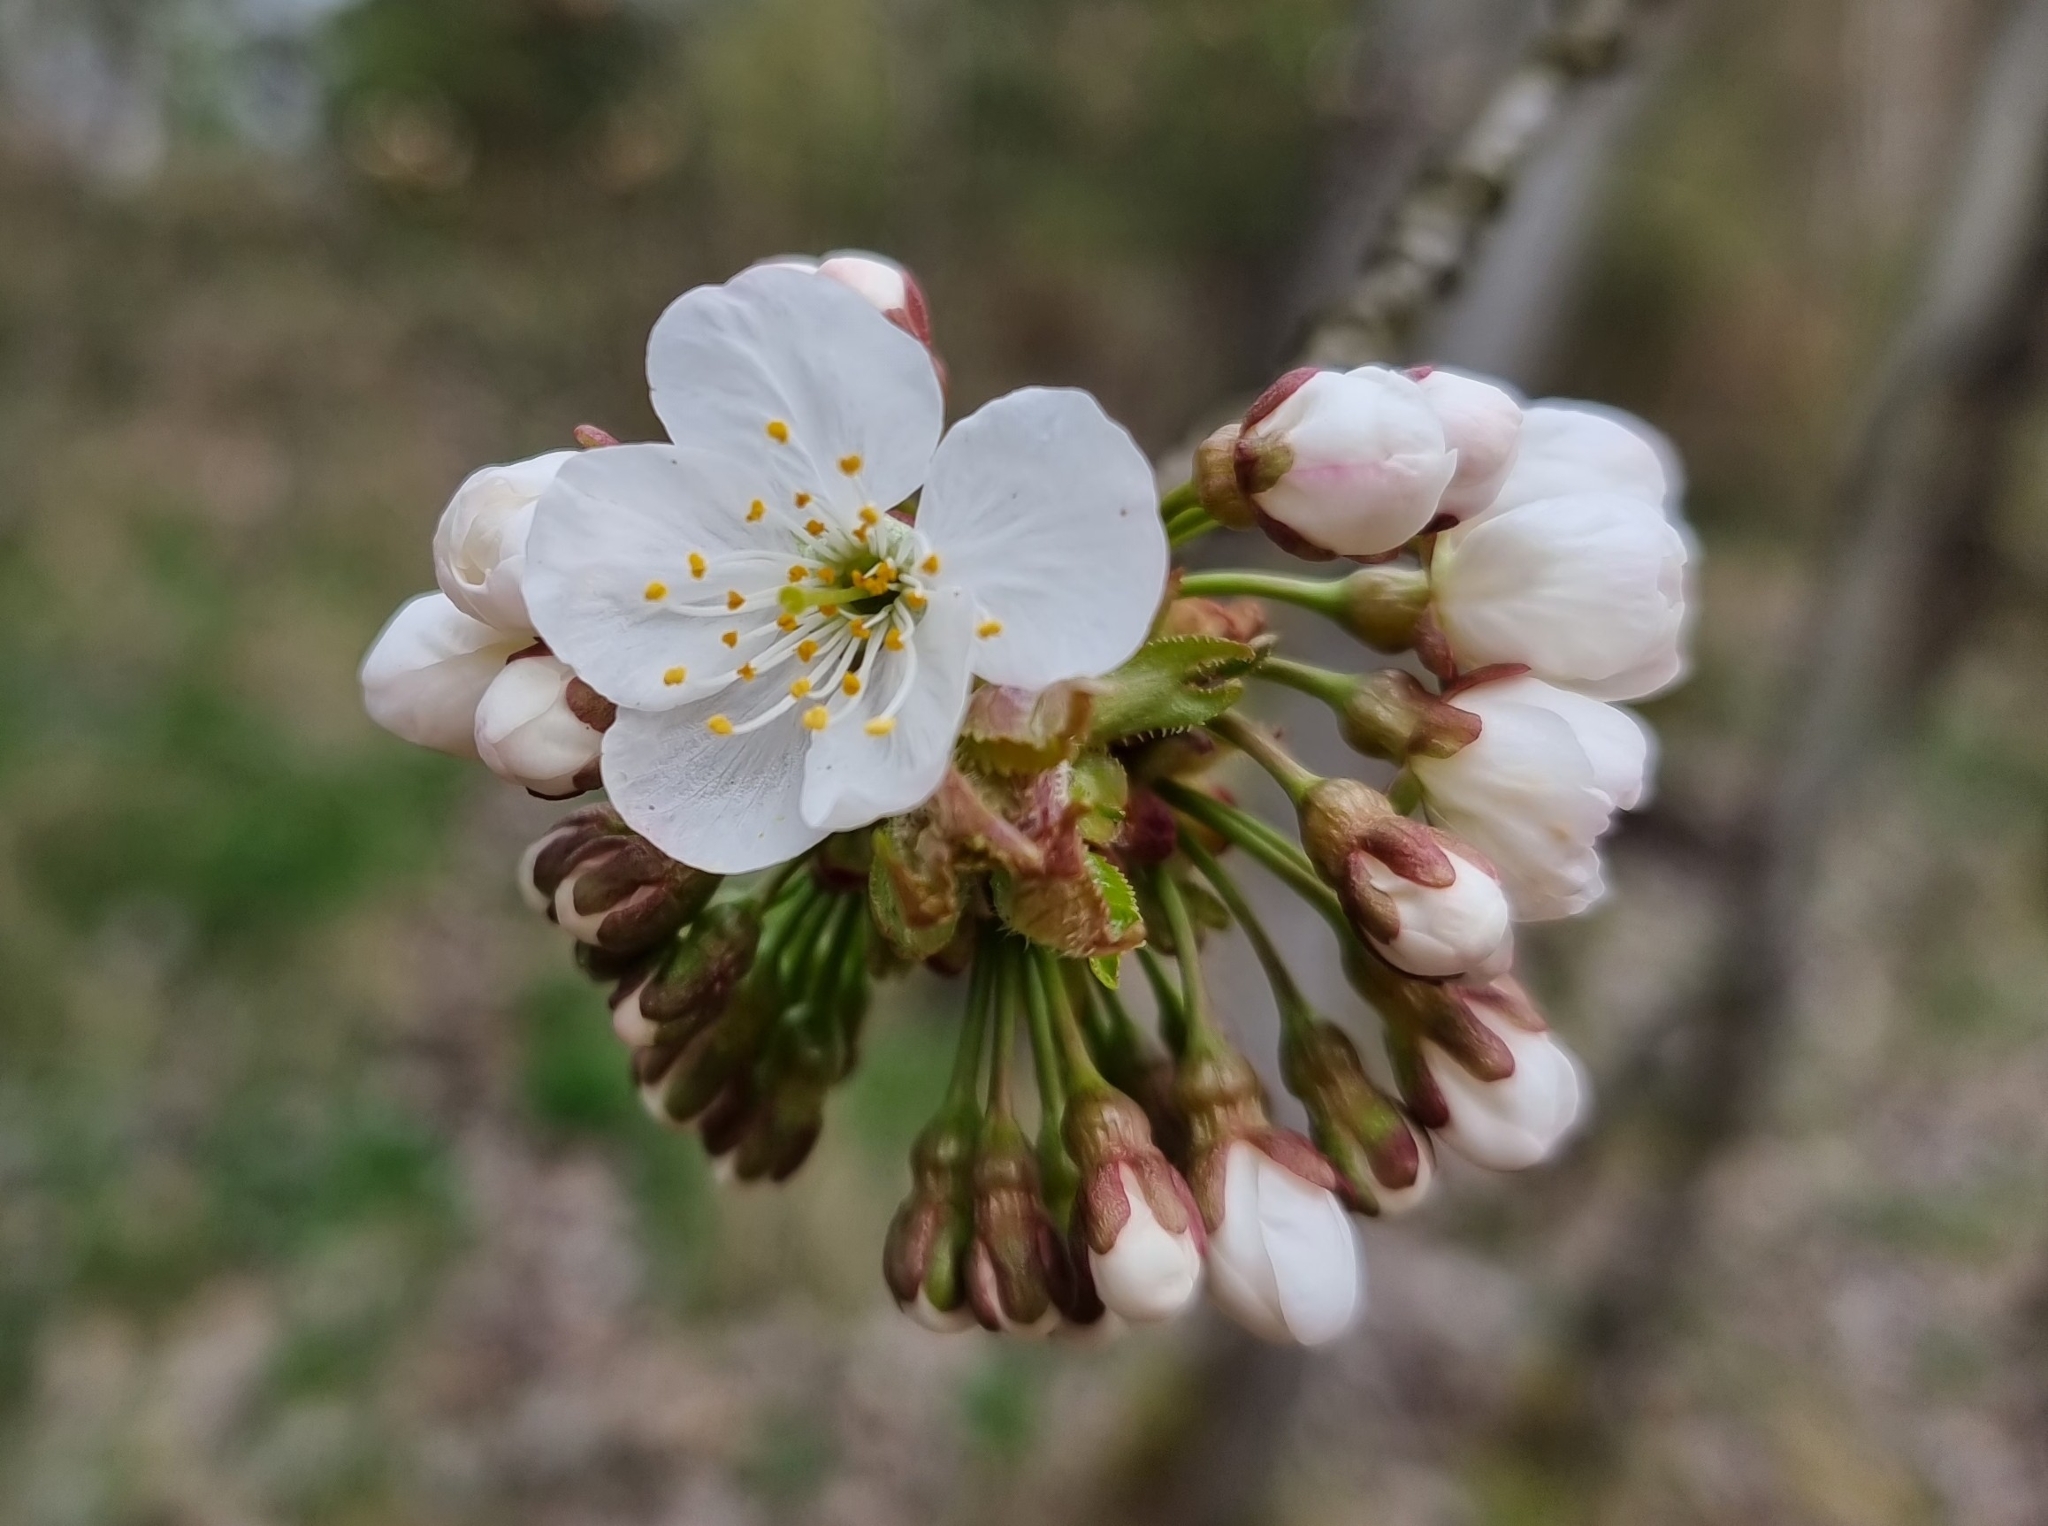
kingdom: Plantae
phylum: Tracheophyta
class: Magnoliopsida
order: Rosales
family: Rosaceae
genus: Prunus
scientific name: Prunus avium
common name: Sweet cherry
